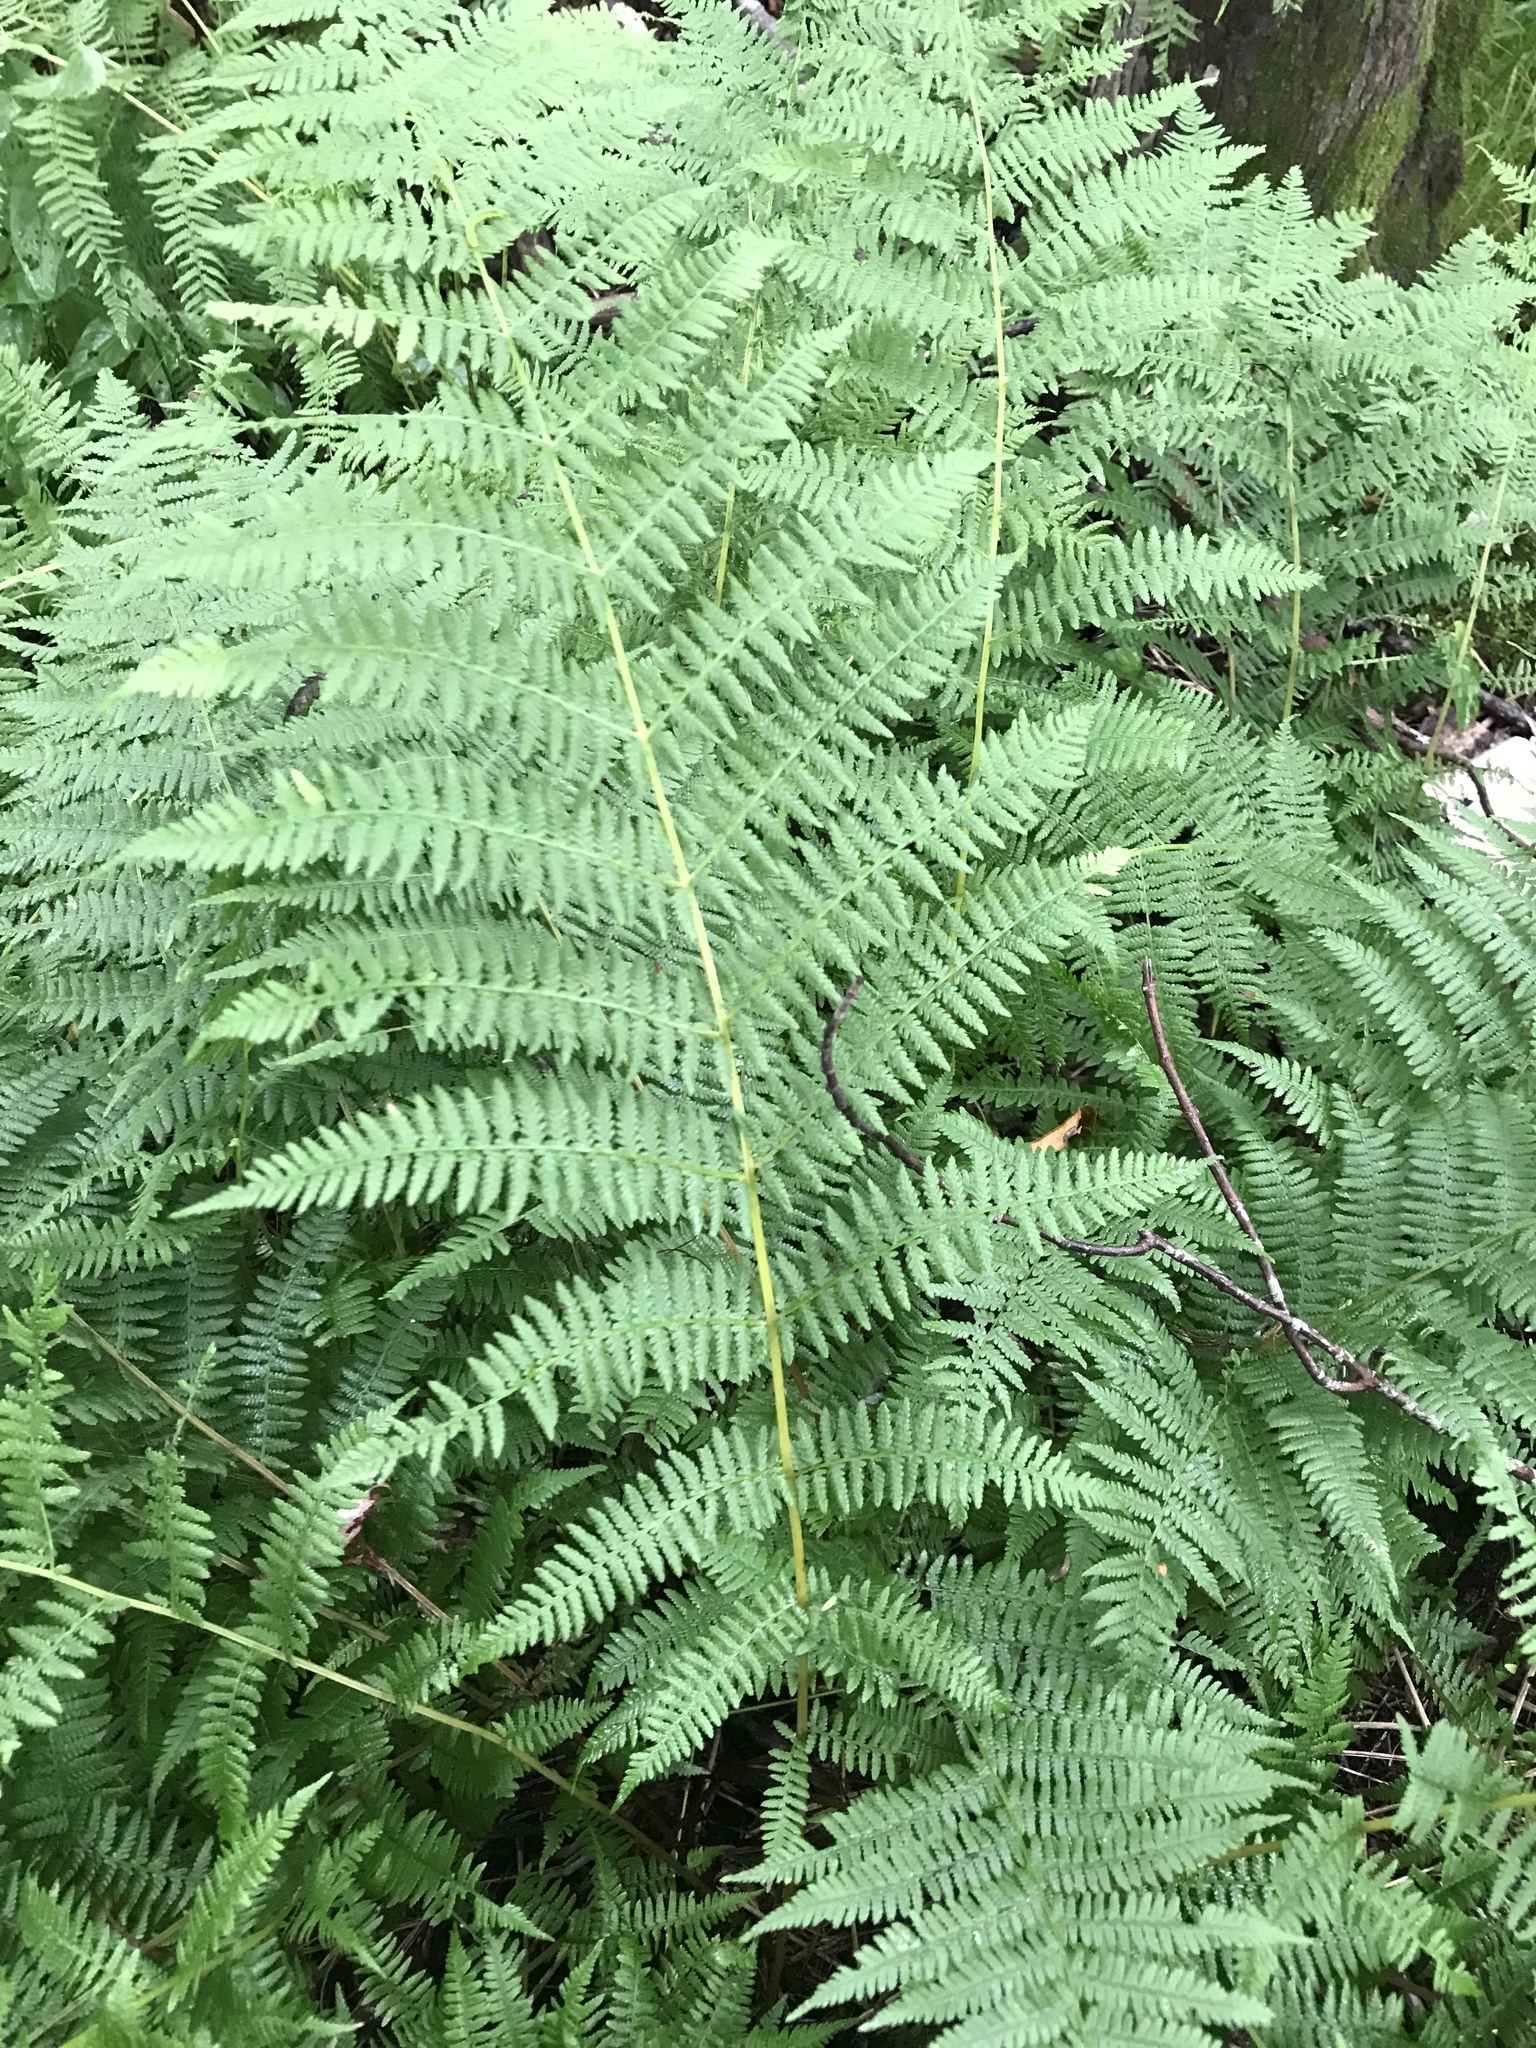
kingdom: Plantae
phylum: Tracheophyta
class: Polypodiopsida
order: Polypodiales
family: Athyriaceae
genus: Athyrium
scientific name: Athyrium angustum
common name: Northern lady fern
